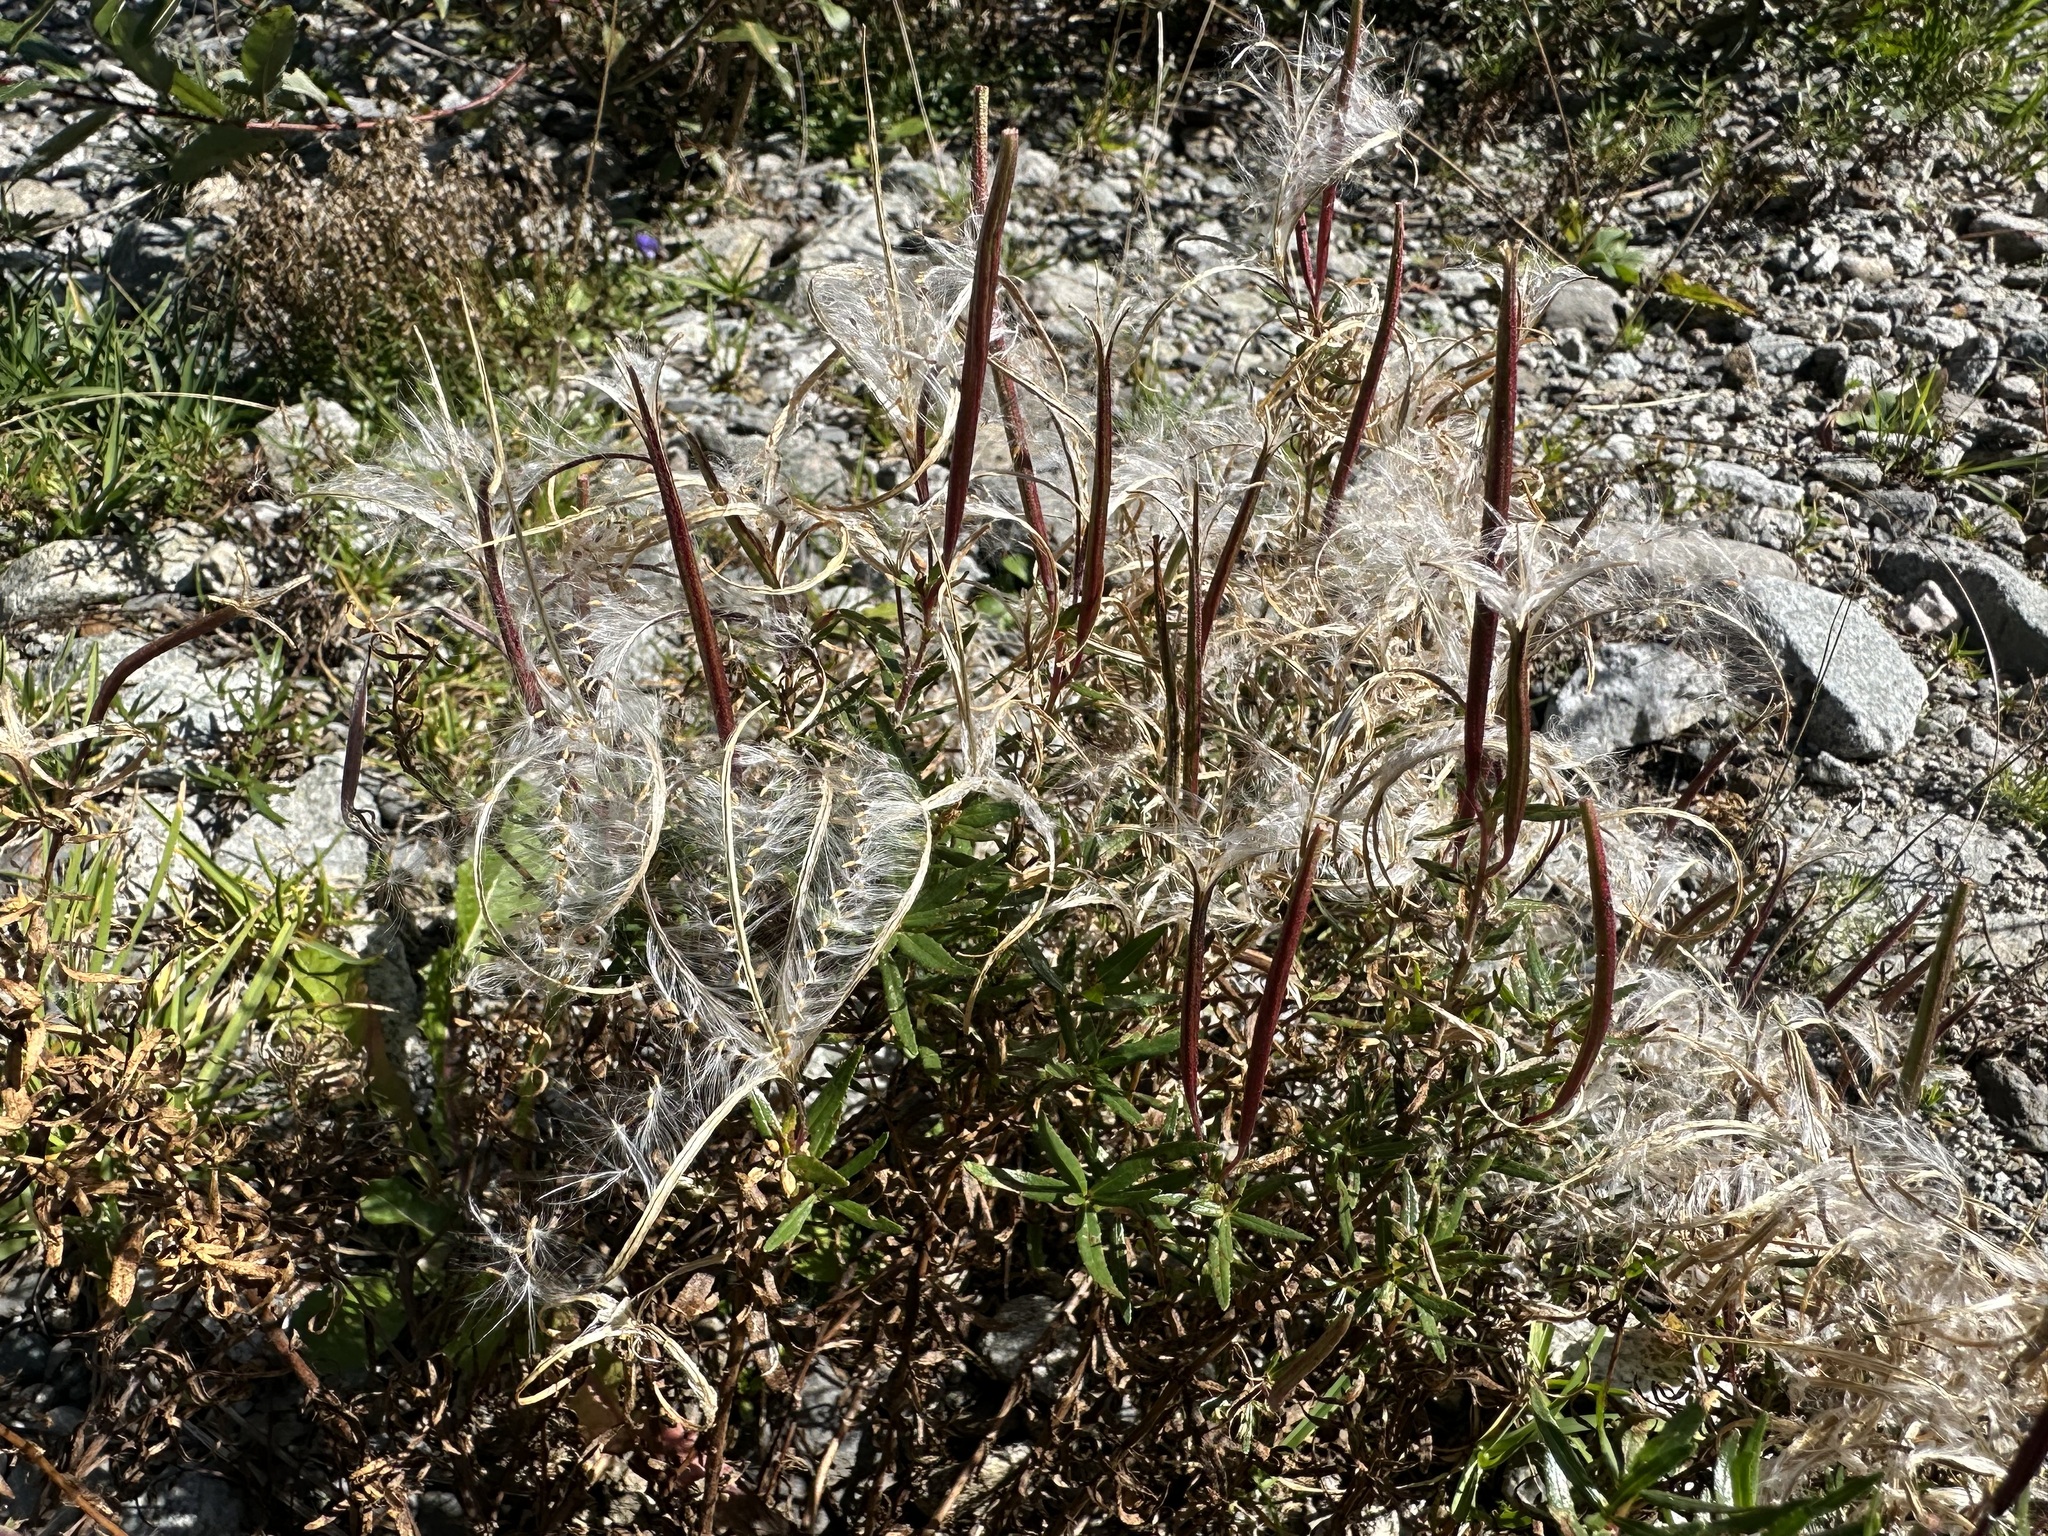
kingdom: Plantae
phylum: Tracheophyta
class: Magnoliopsida
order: Myrtales
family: Onagraceae
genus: Chamaenerion
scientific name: Chamaenerion fleischeri
